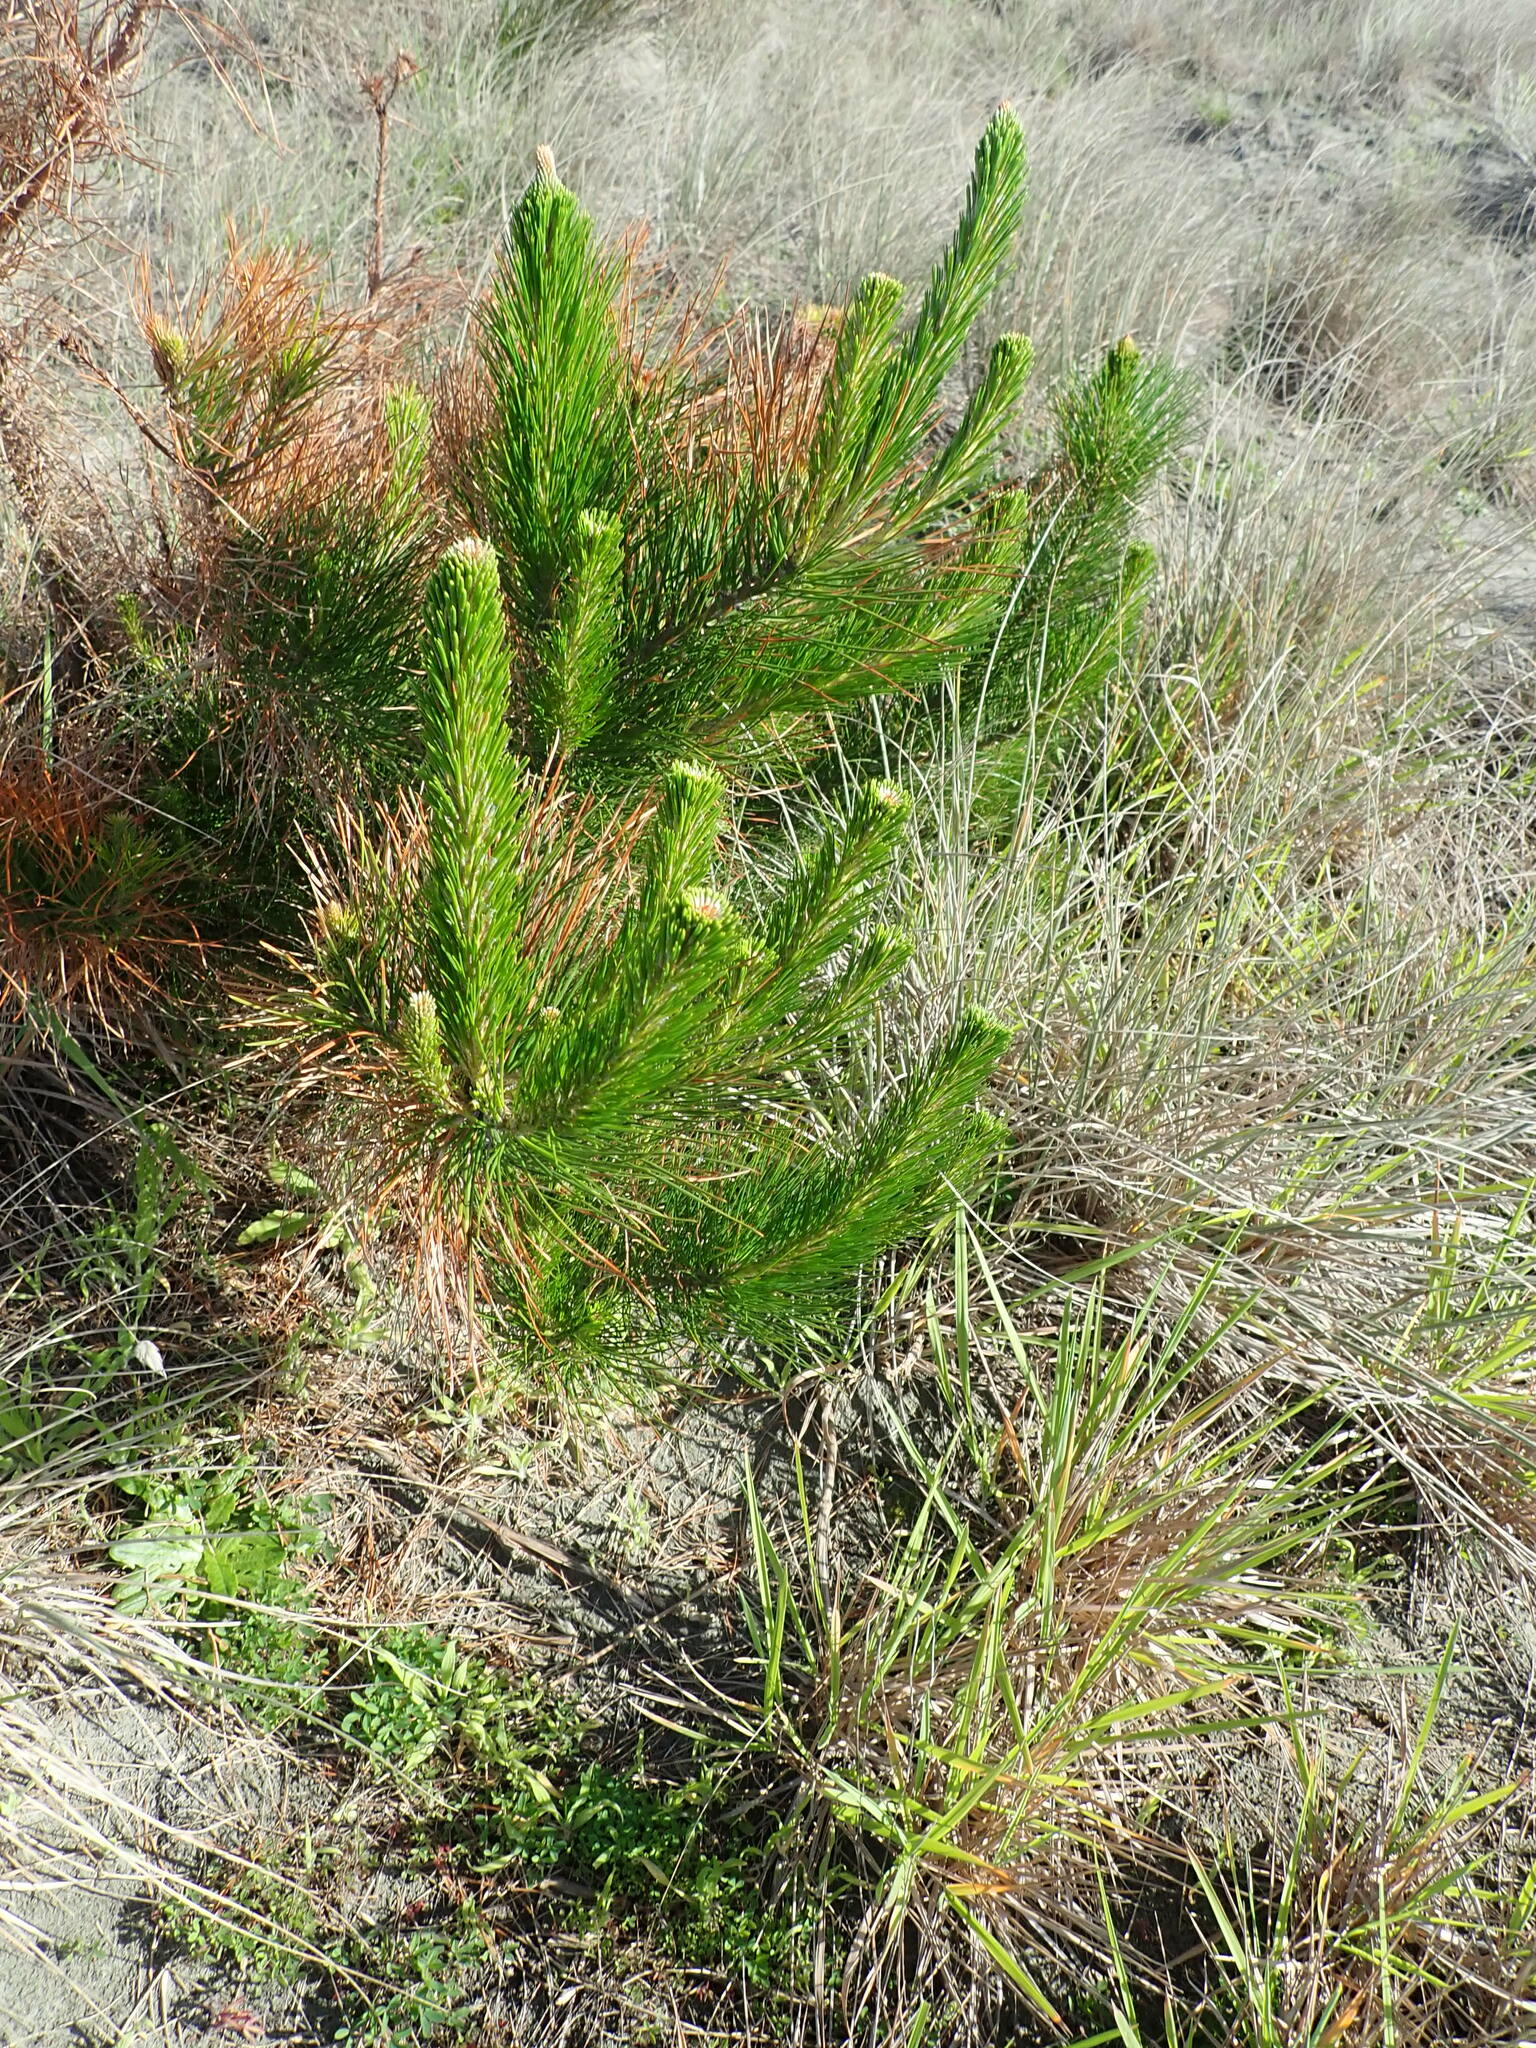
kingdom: Plantae
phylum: Tracheophyta
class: Pinopsida
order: Pinales
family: Pinaceae
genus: Pinus
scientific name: Pinus radiata
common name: Monterey pine
